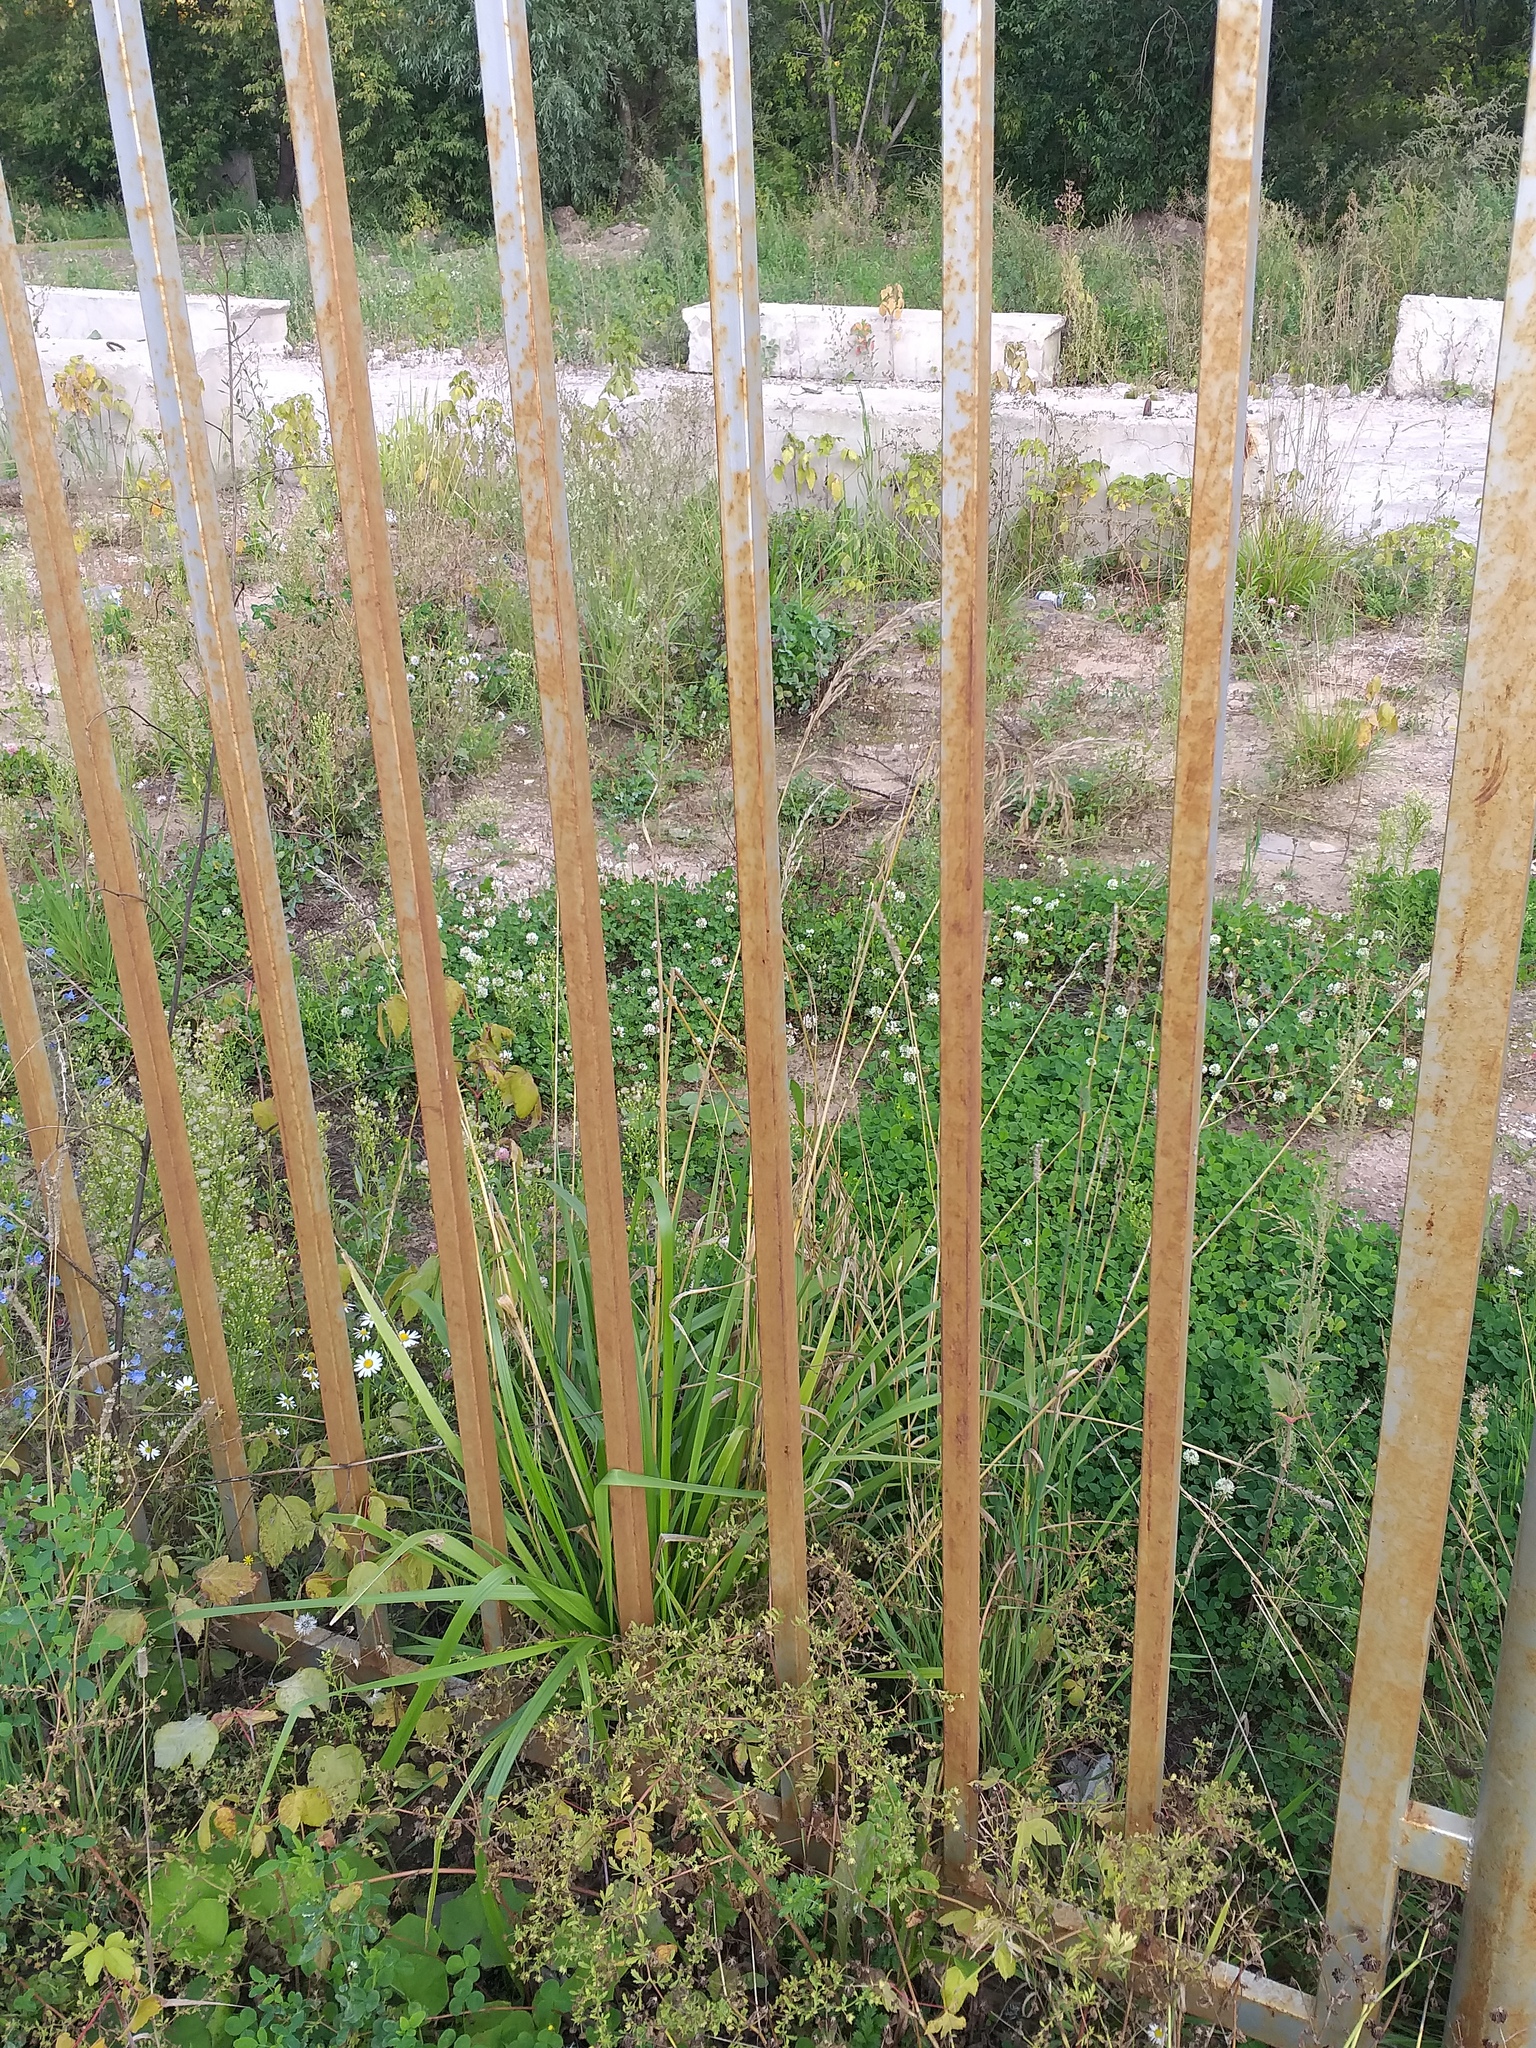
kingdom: Plantae
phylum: Tracheophyta
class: Liliopsida
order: Poales
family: Poaceae
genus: Lolium
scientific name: Lolium arundinaceum
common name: Reed fescue
